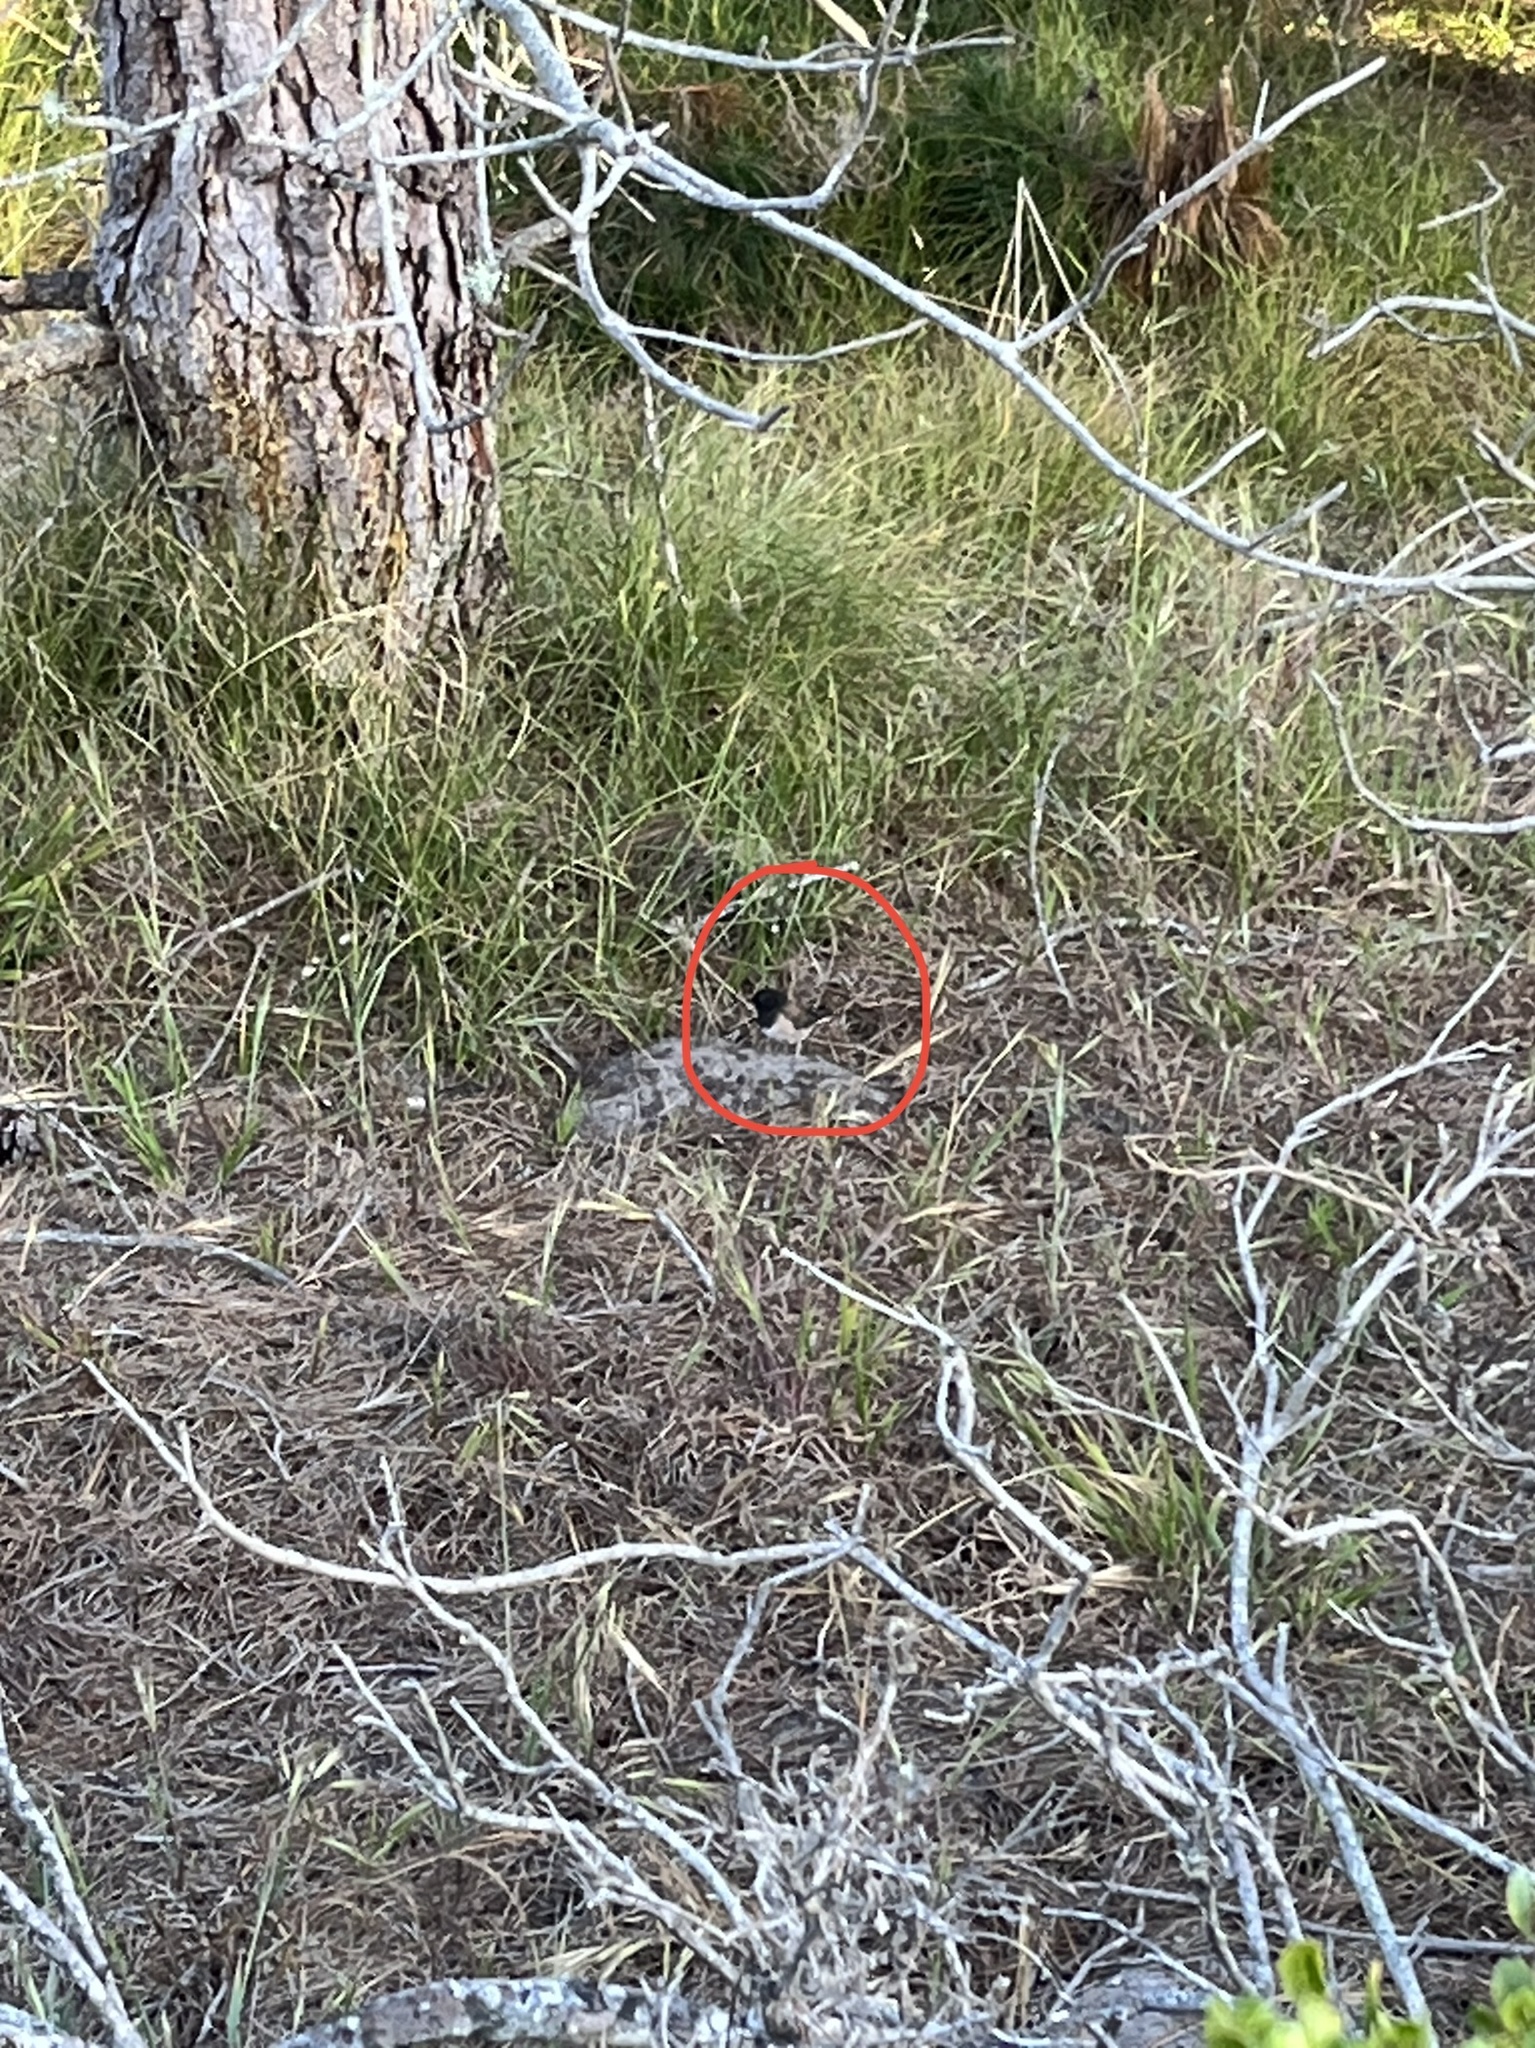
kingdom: Animalia
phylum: Chordata
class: Aves
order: Passeriformes
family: Passerellidae
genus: Junco
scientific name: Junco hyemalis
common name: Dark-eyed junco
